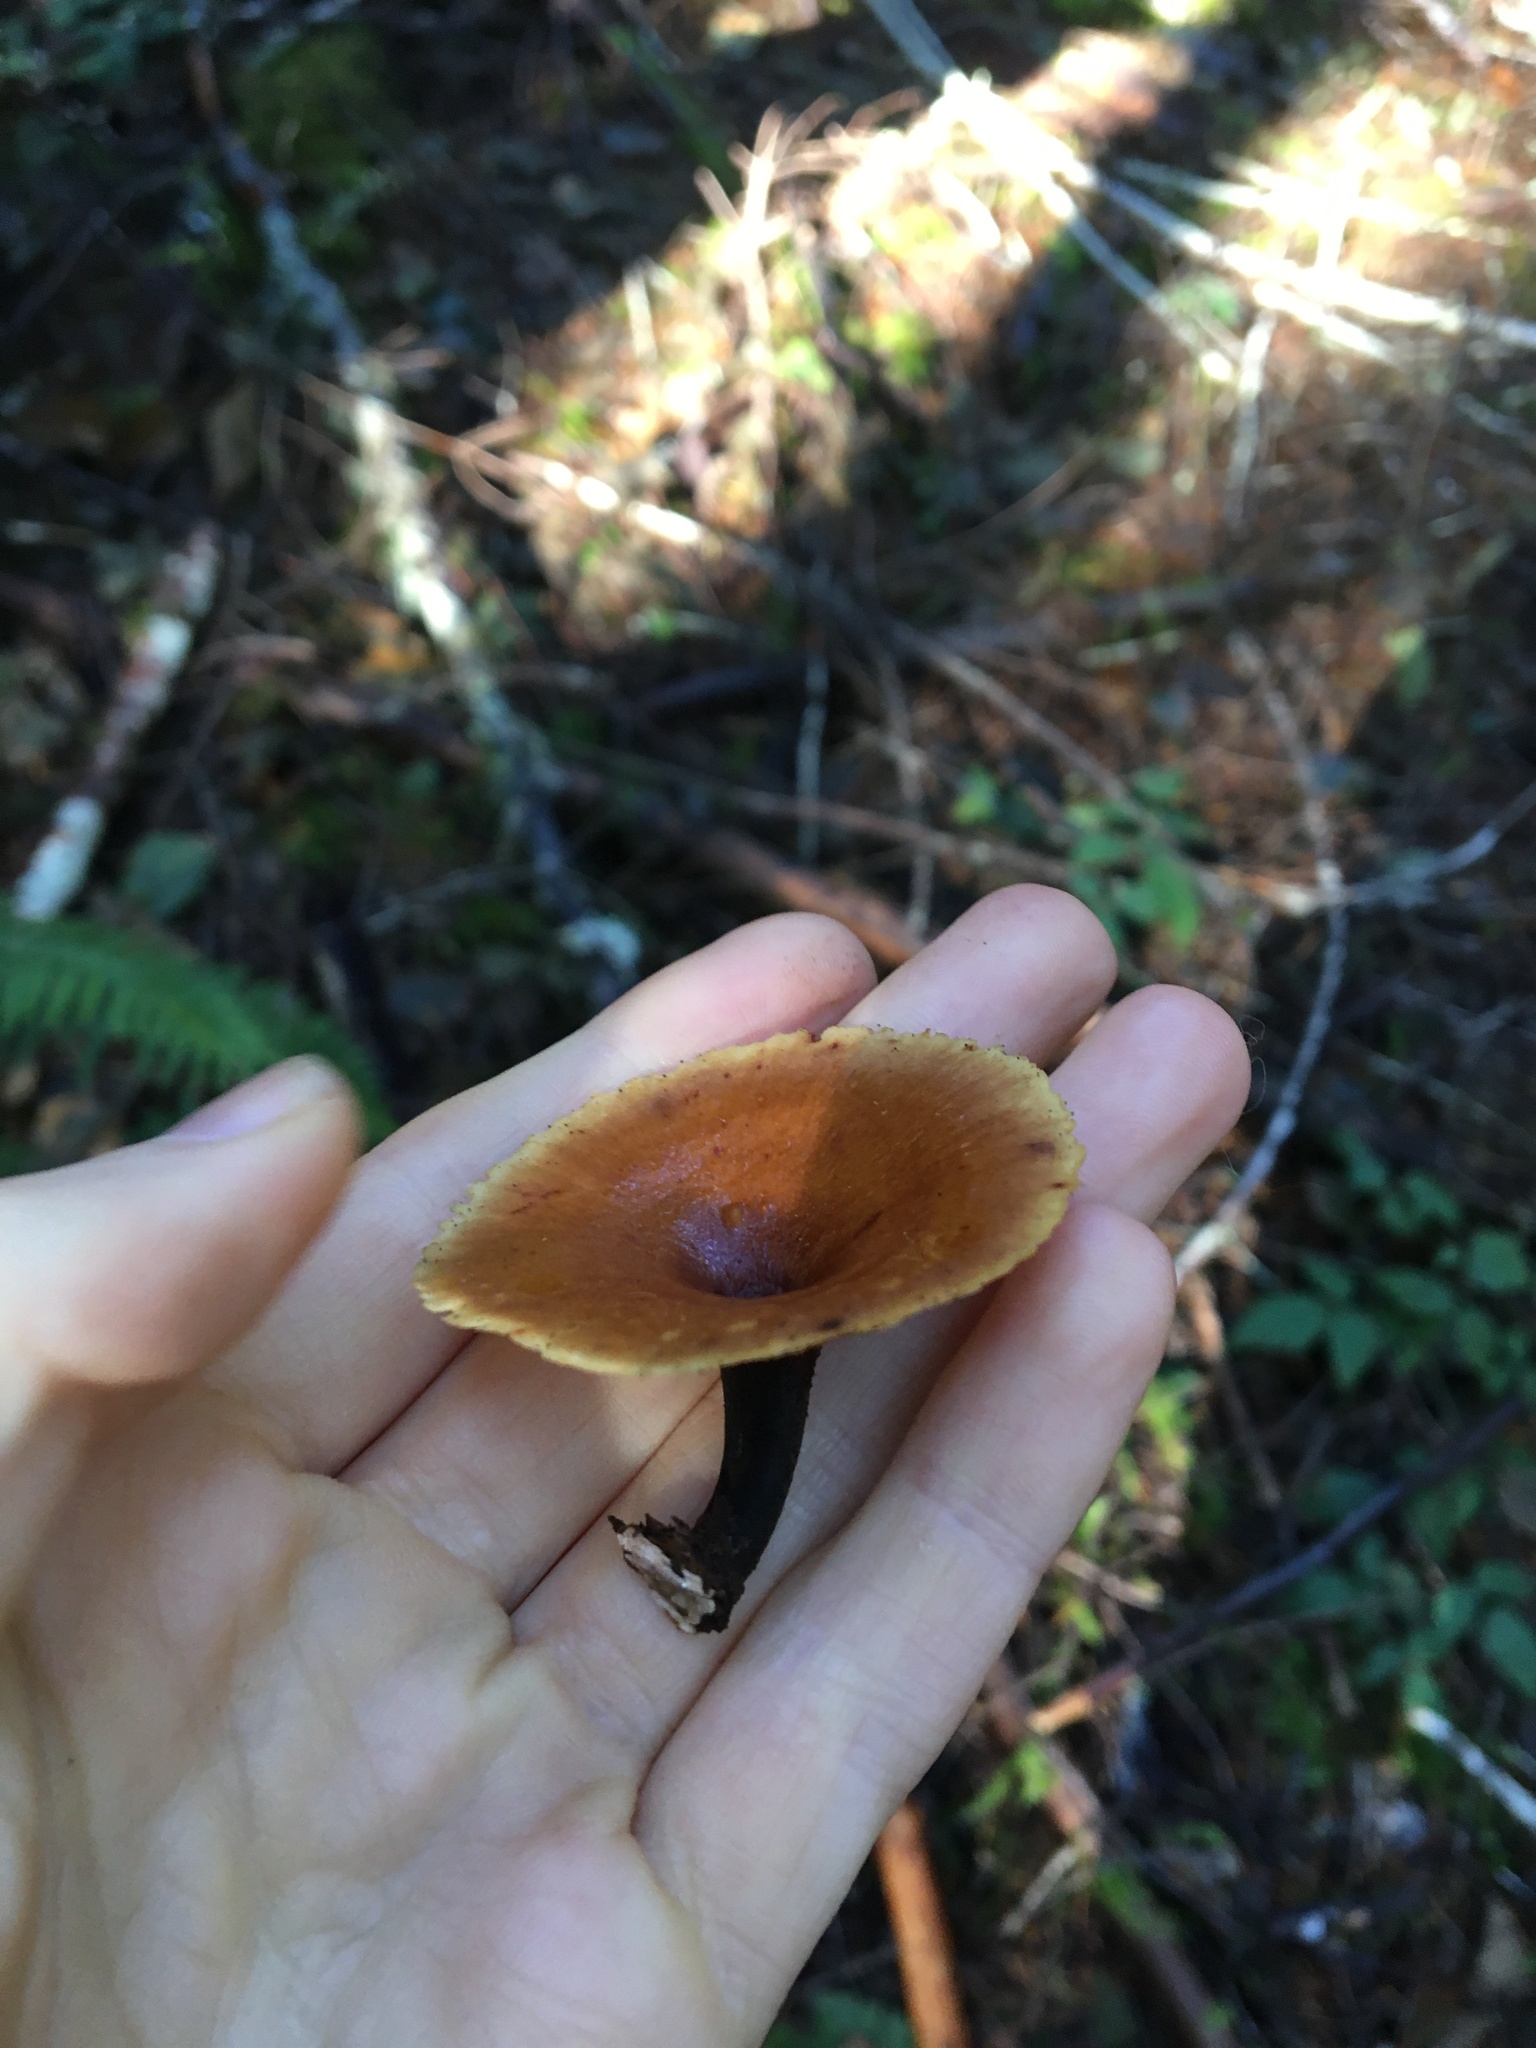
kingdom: Fungi
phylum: Basidiomycota
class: Agaricomycetes
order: Polyporales
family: Polyporaceae
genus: Picipes
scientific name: Picipes badius
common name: Bay polypore
